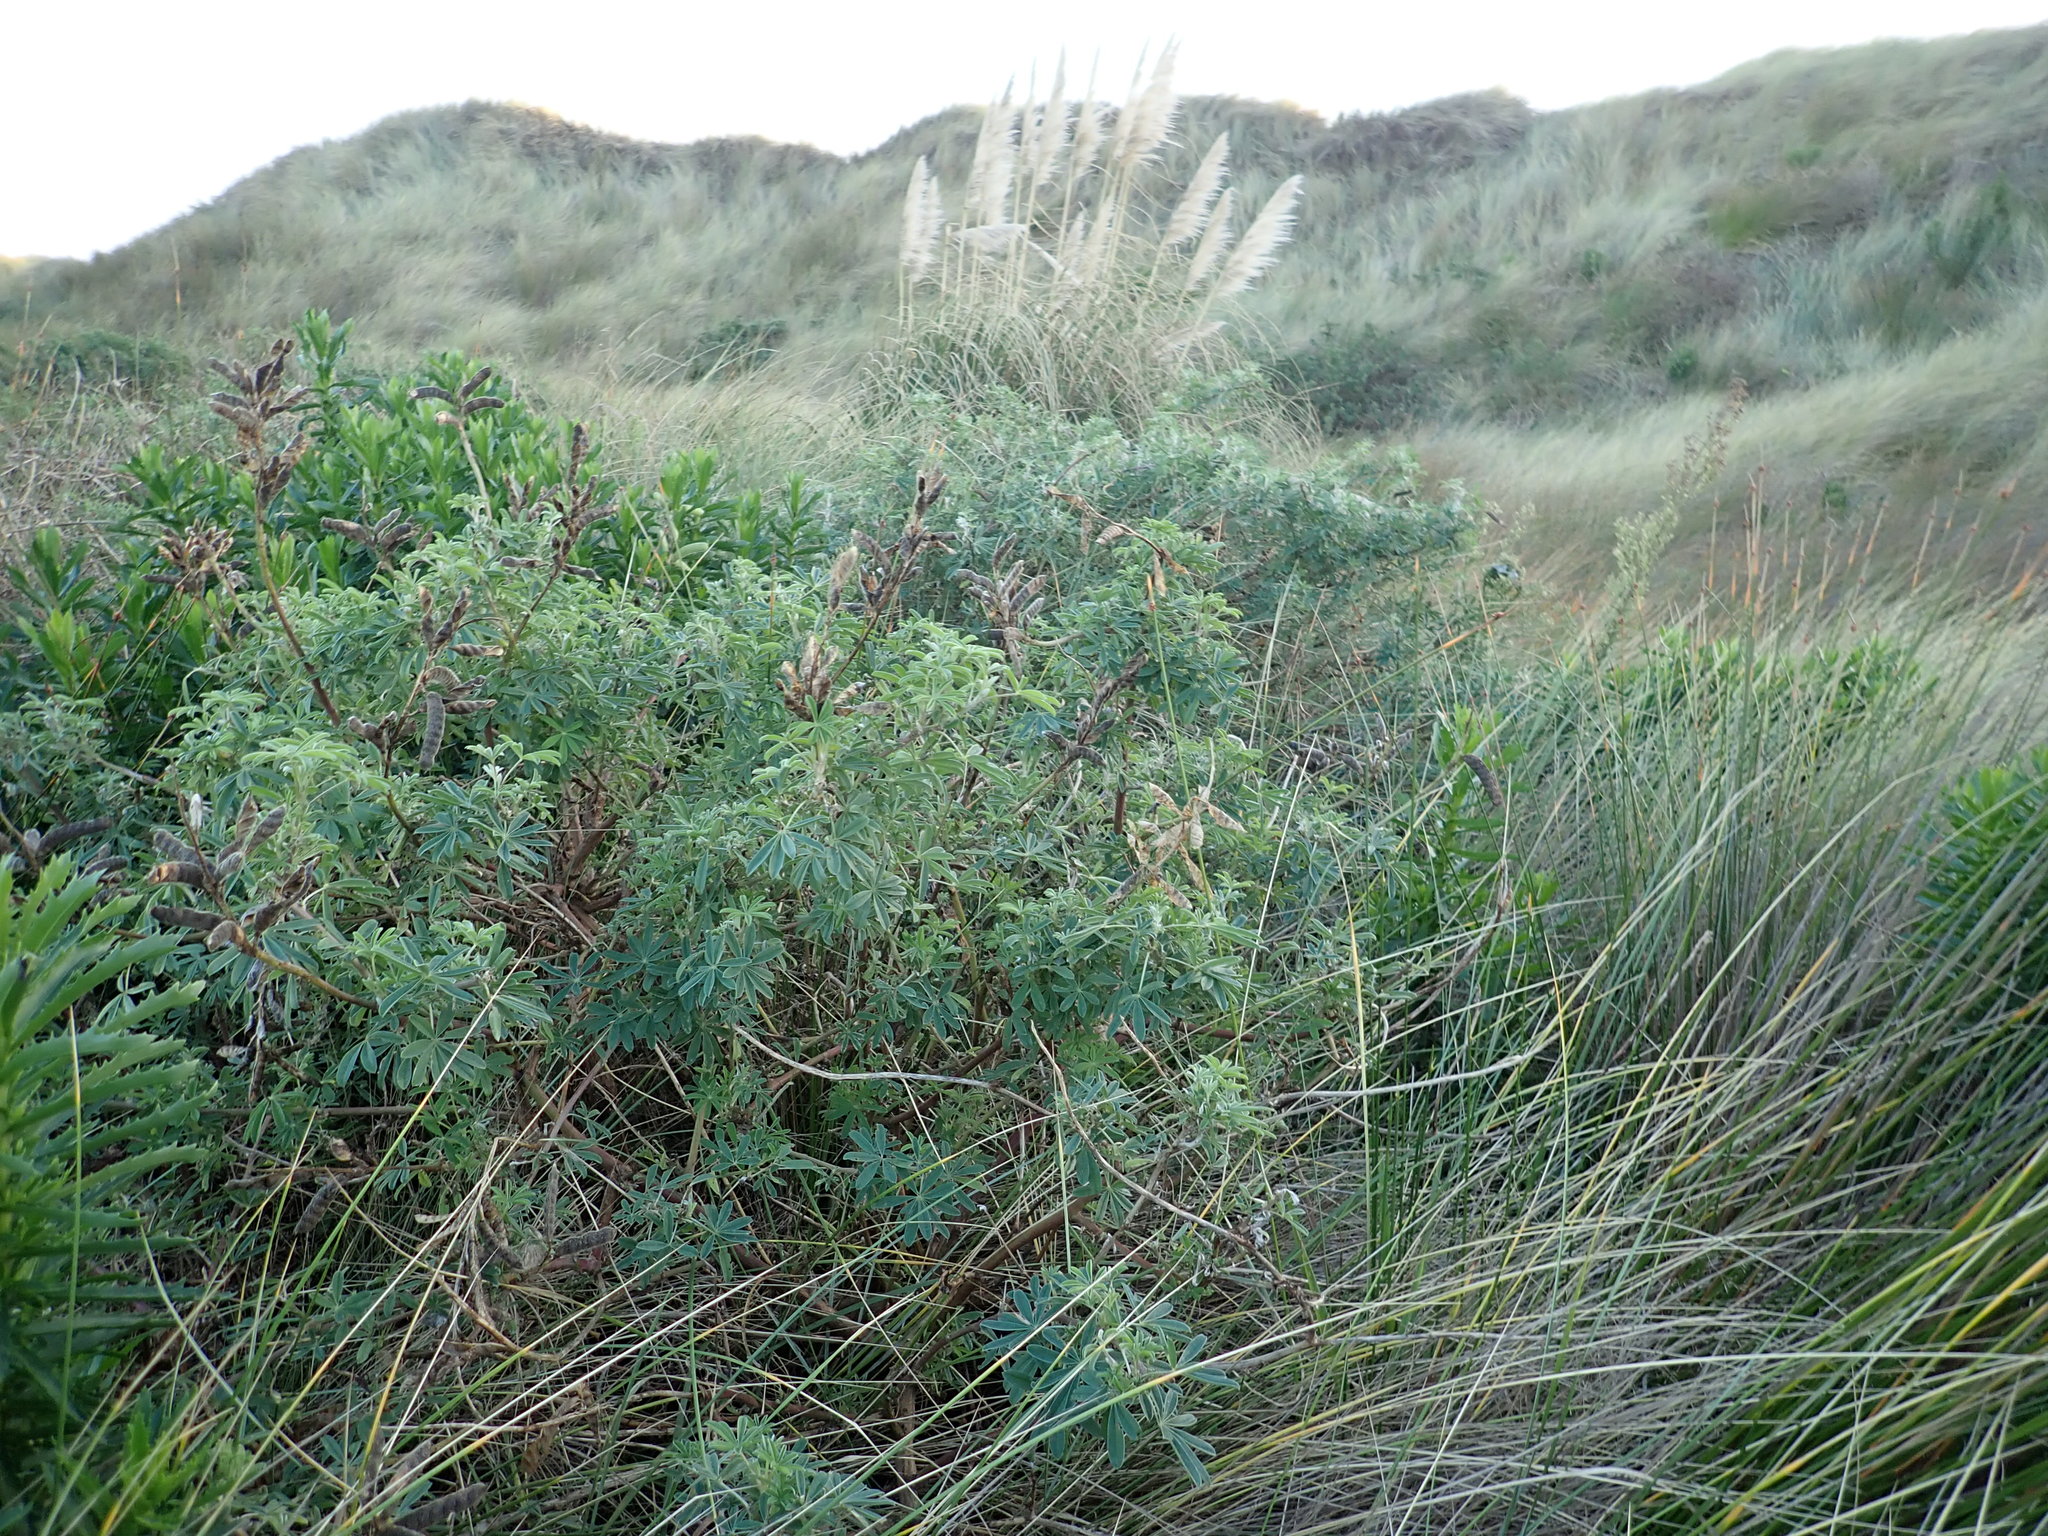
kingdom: Plantae
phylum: Tracheophyta
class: Magnoliopsida
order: Fabales
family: Fabaceae
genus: Lupinus
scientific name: Lupinus arboreus
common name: Yellow bush lupine
